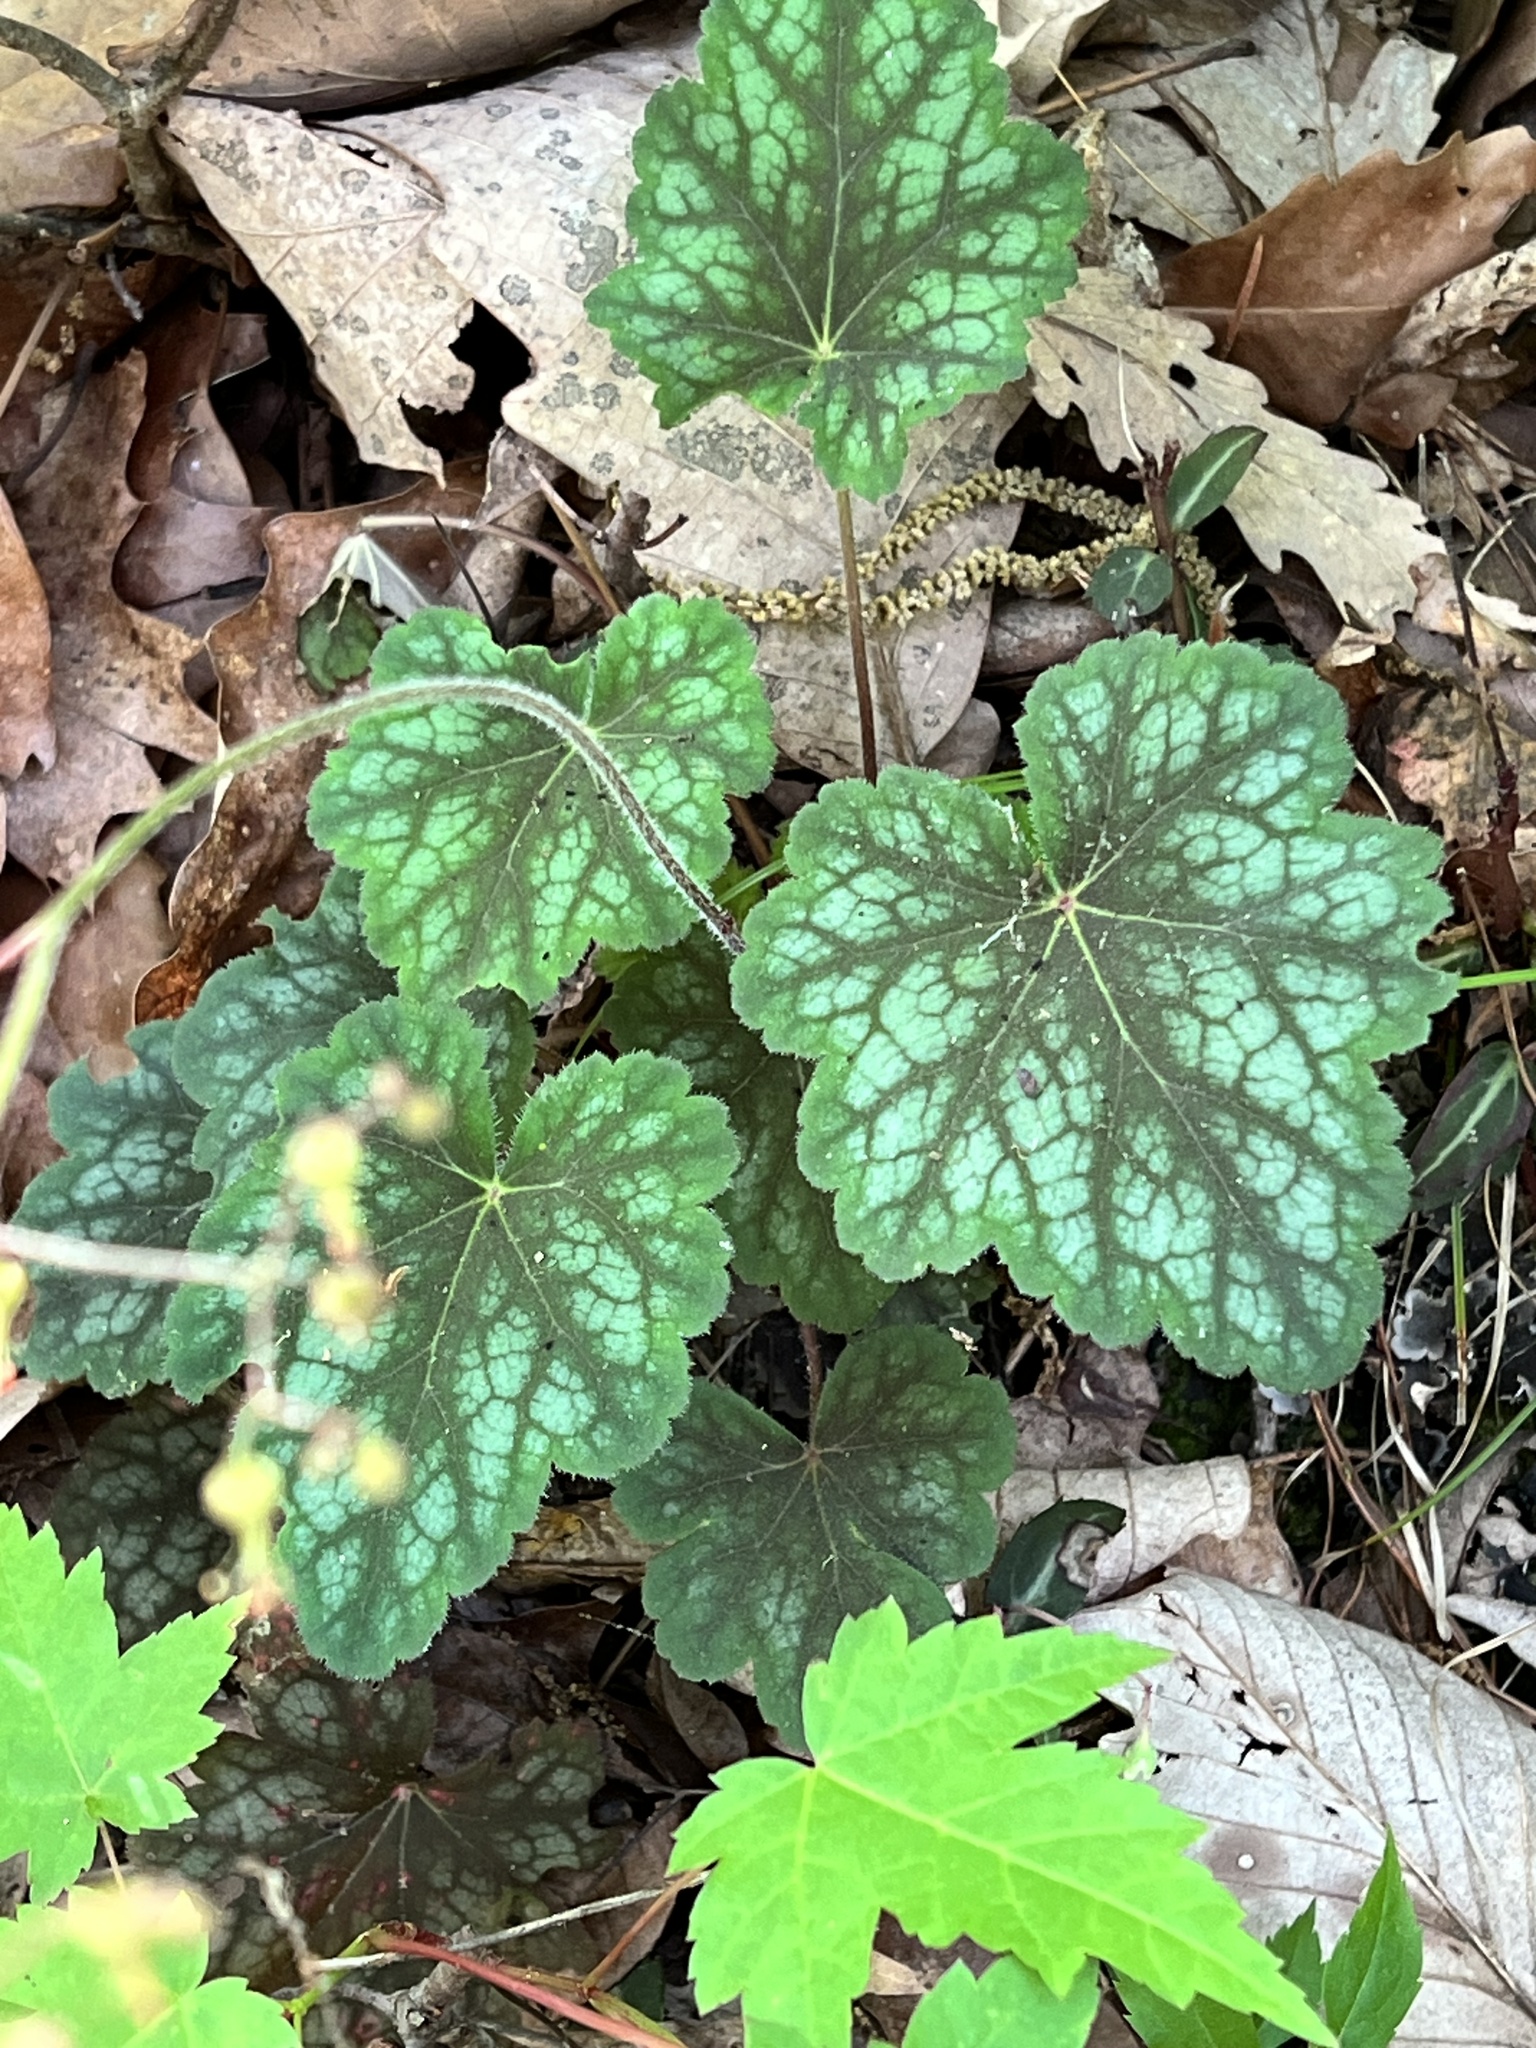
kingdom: Plantae
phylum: Tracheophyta
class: Magnoliopsida
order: Saxifragales
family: Saxifragaceae
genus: Heuchera
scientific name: Heuchera americana
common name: Alumroot
